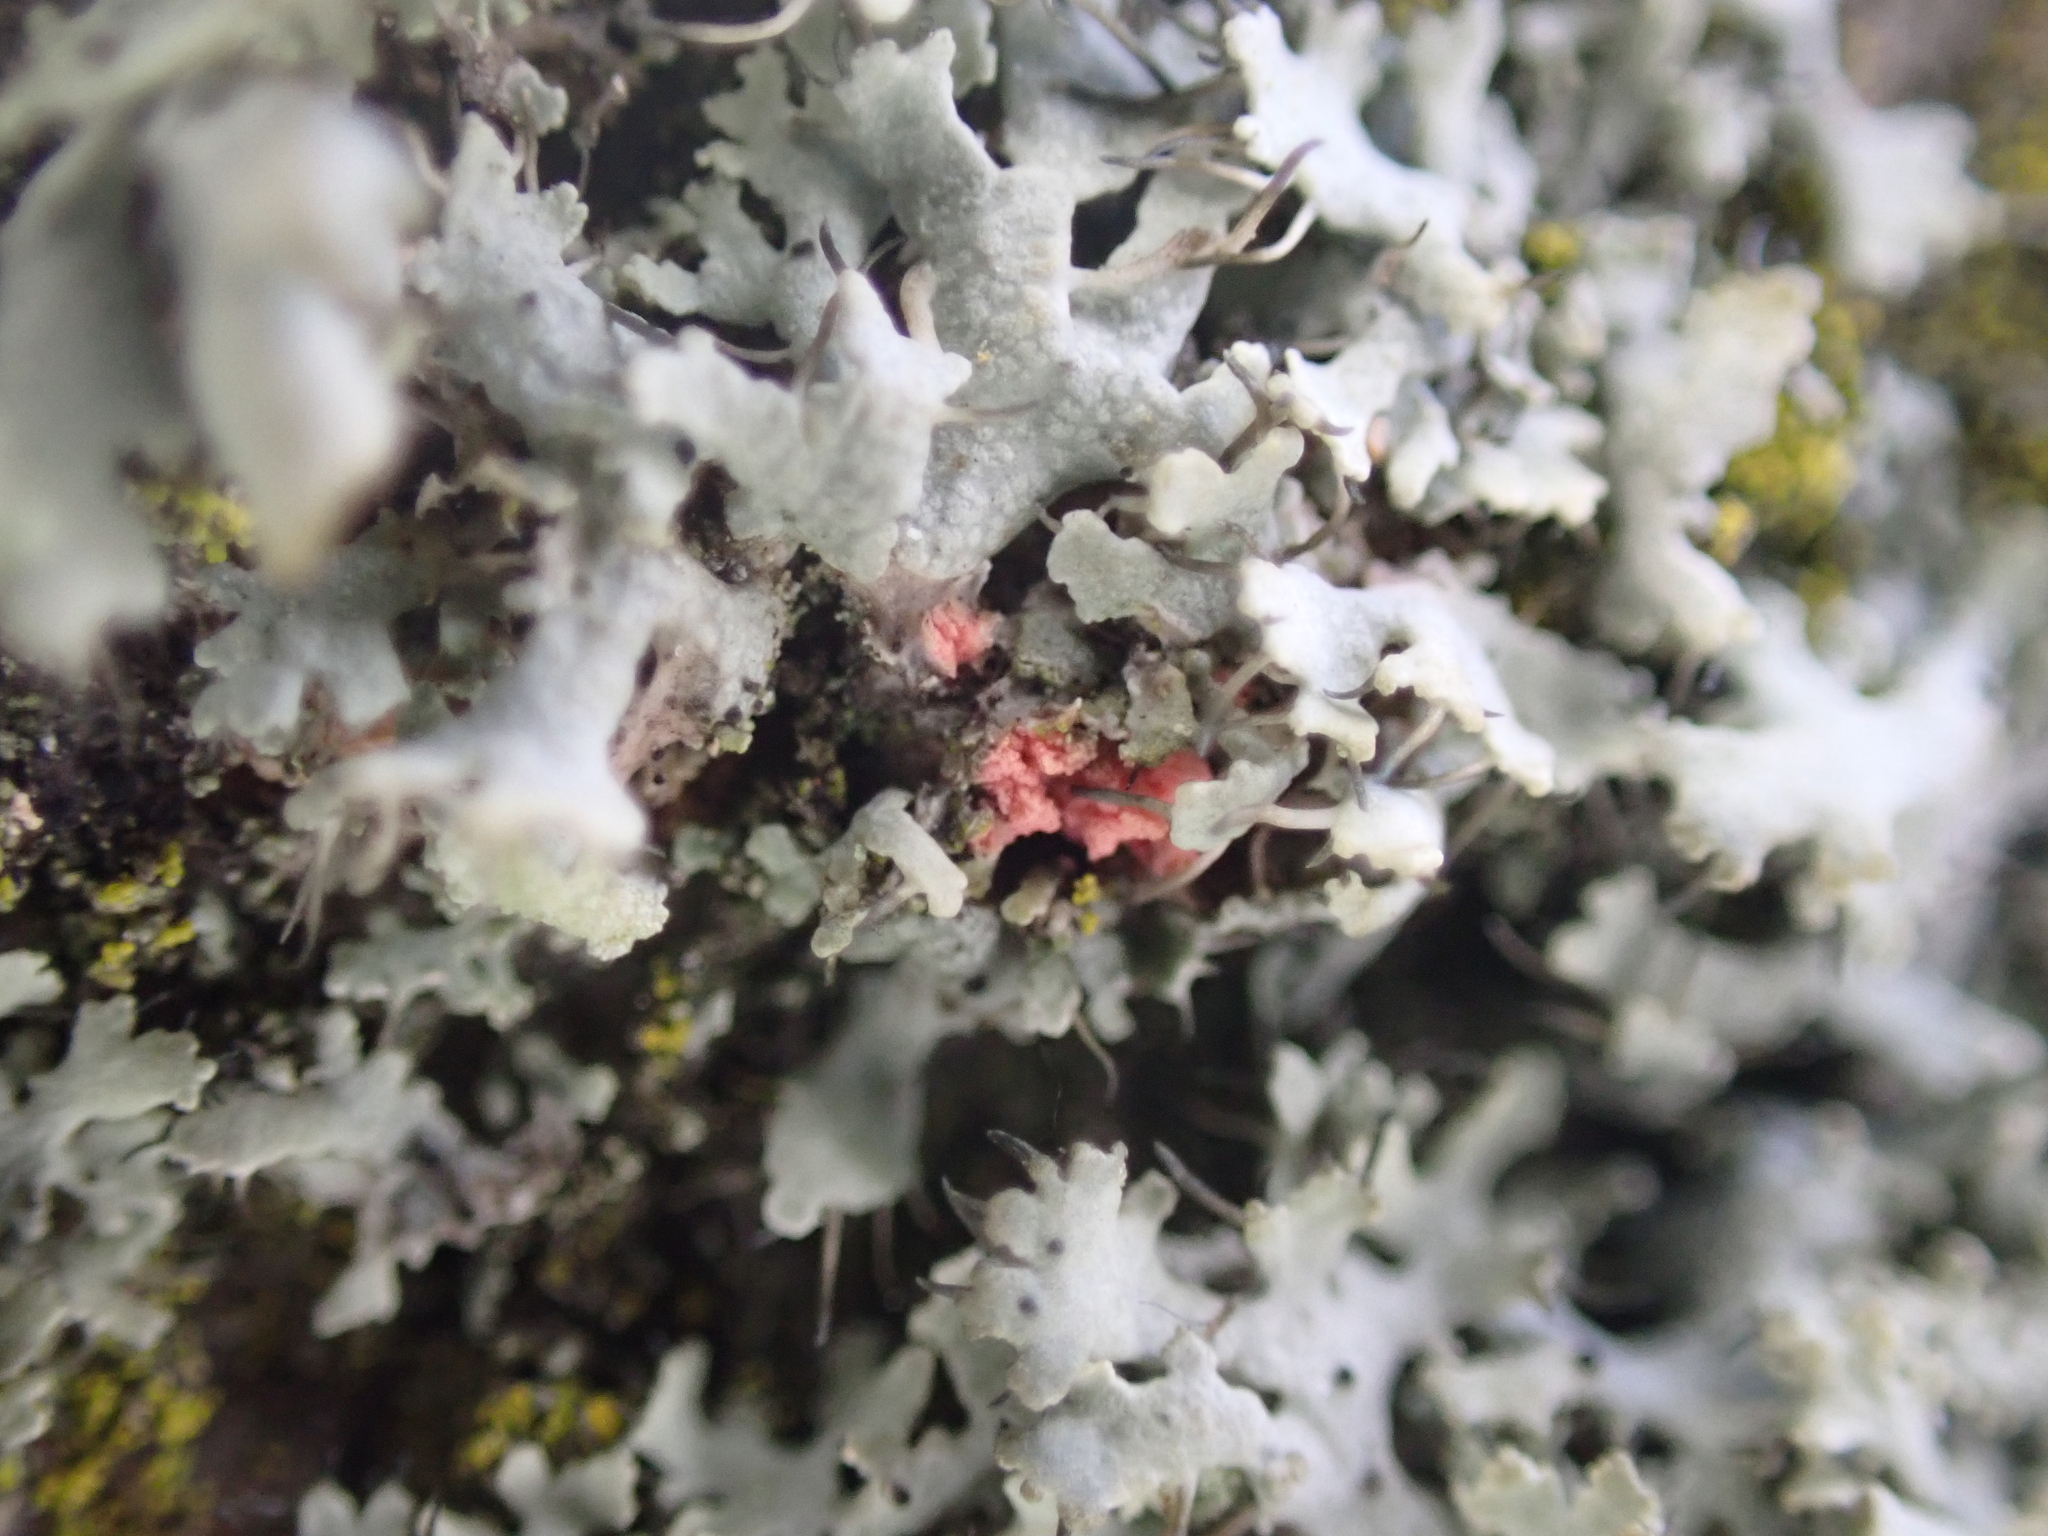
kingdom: Fungi
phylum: Ascomycota
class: Sordariomycetes
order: Hypocreales
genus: Illosporiopsis
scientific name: Illosporiopsis christiansenii
